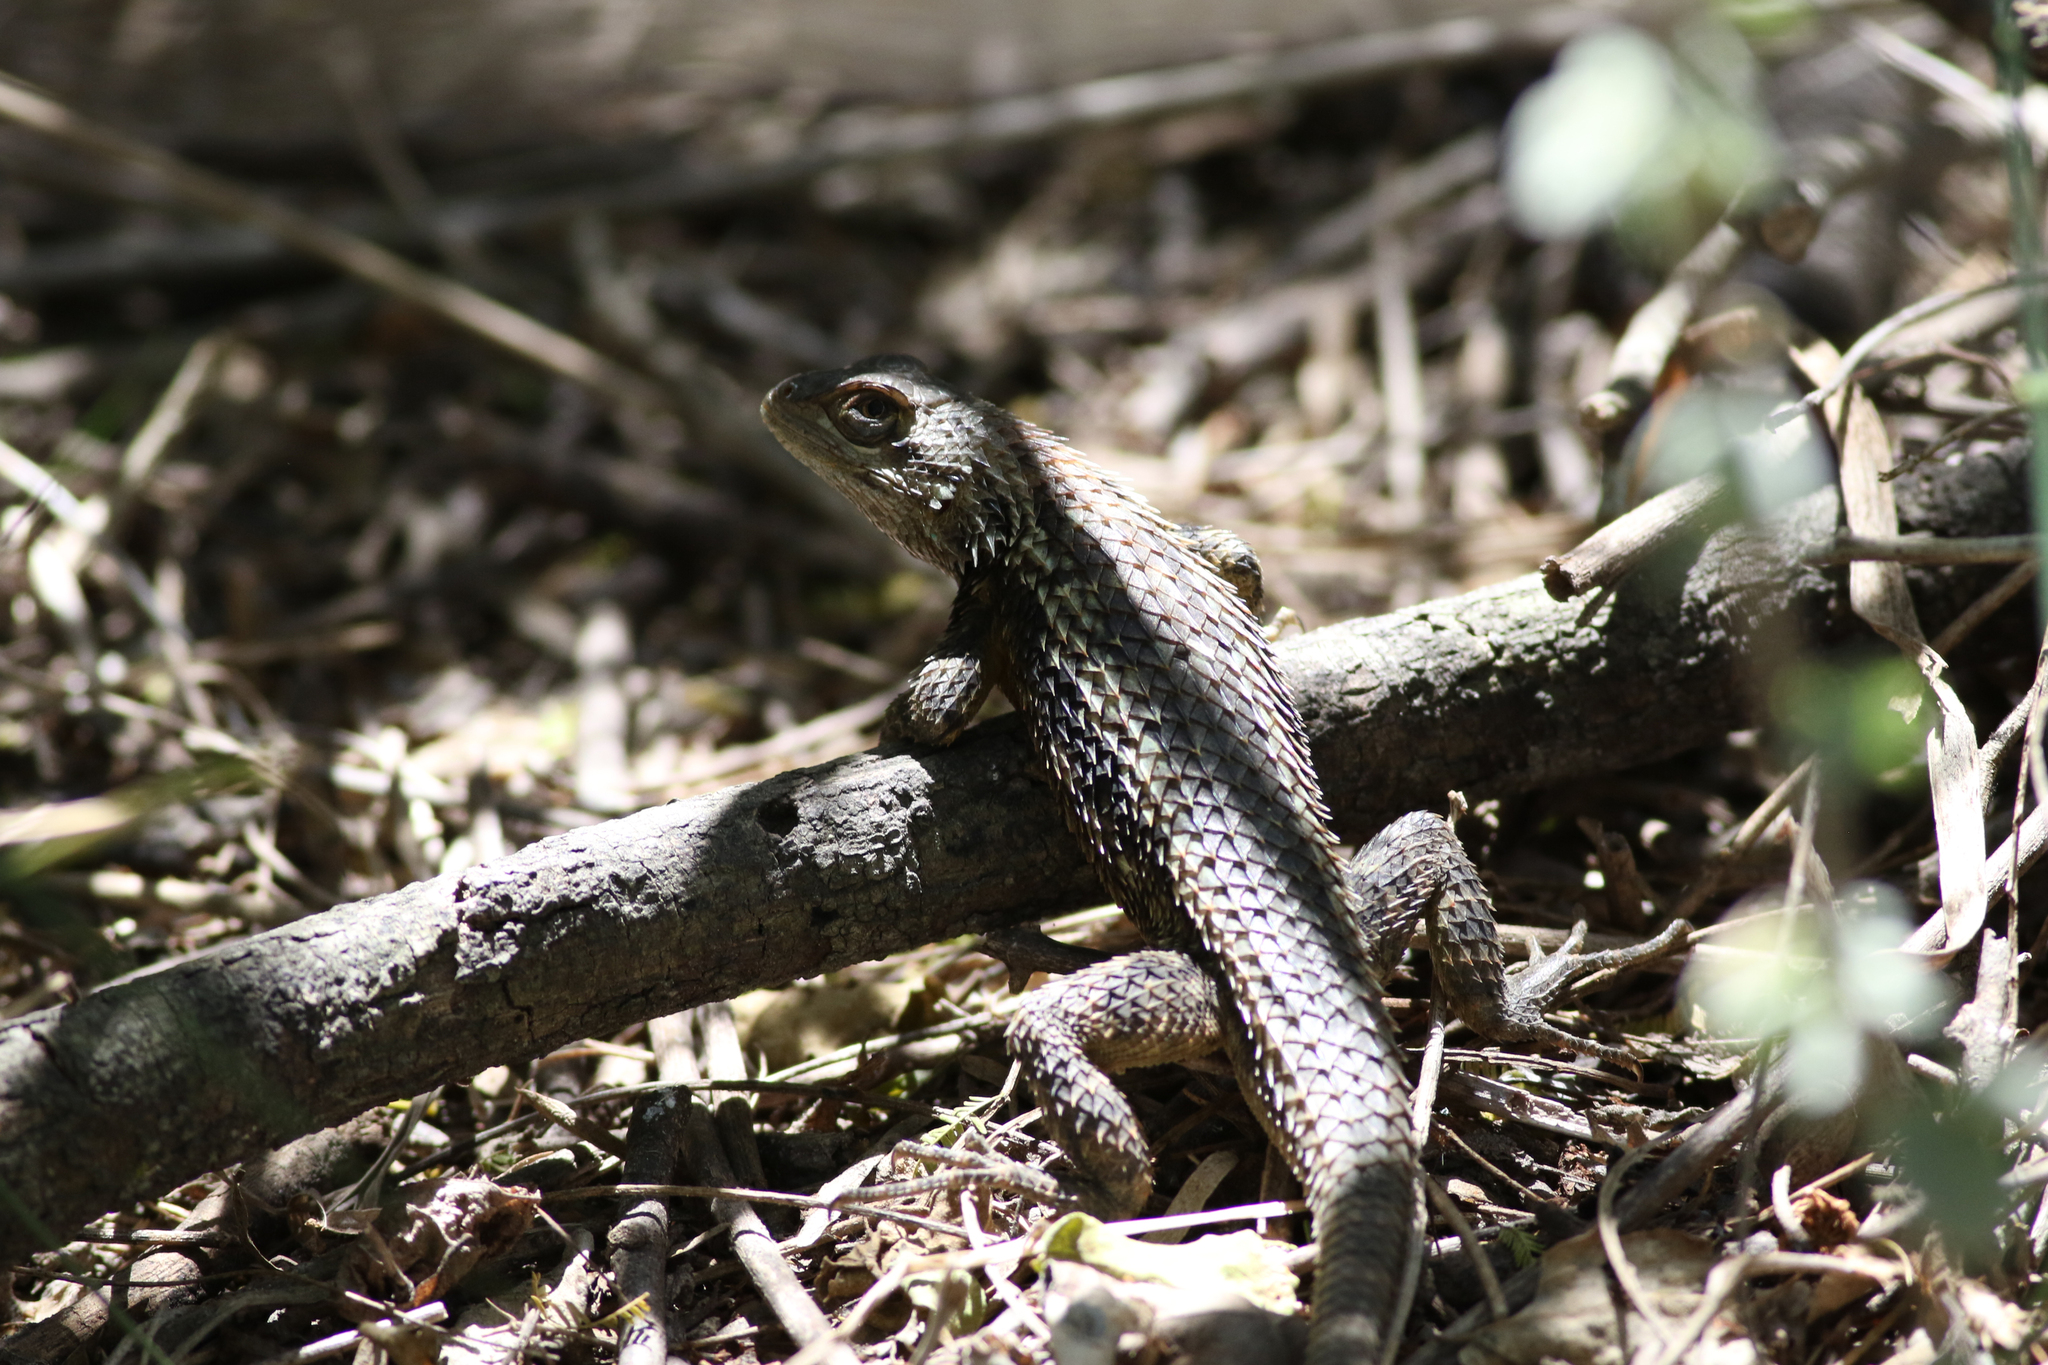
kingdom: Animalia
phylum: Chordata
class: Squamata
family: Phrynosomatidae
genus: Sceloporus
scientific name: Sceloporus olivaceus
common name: Texas spiny lizard
